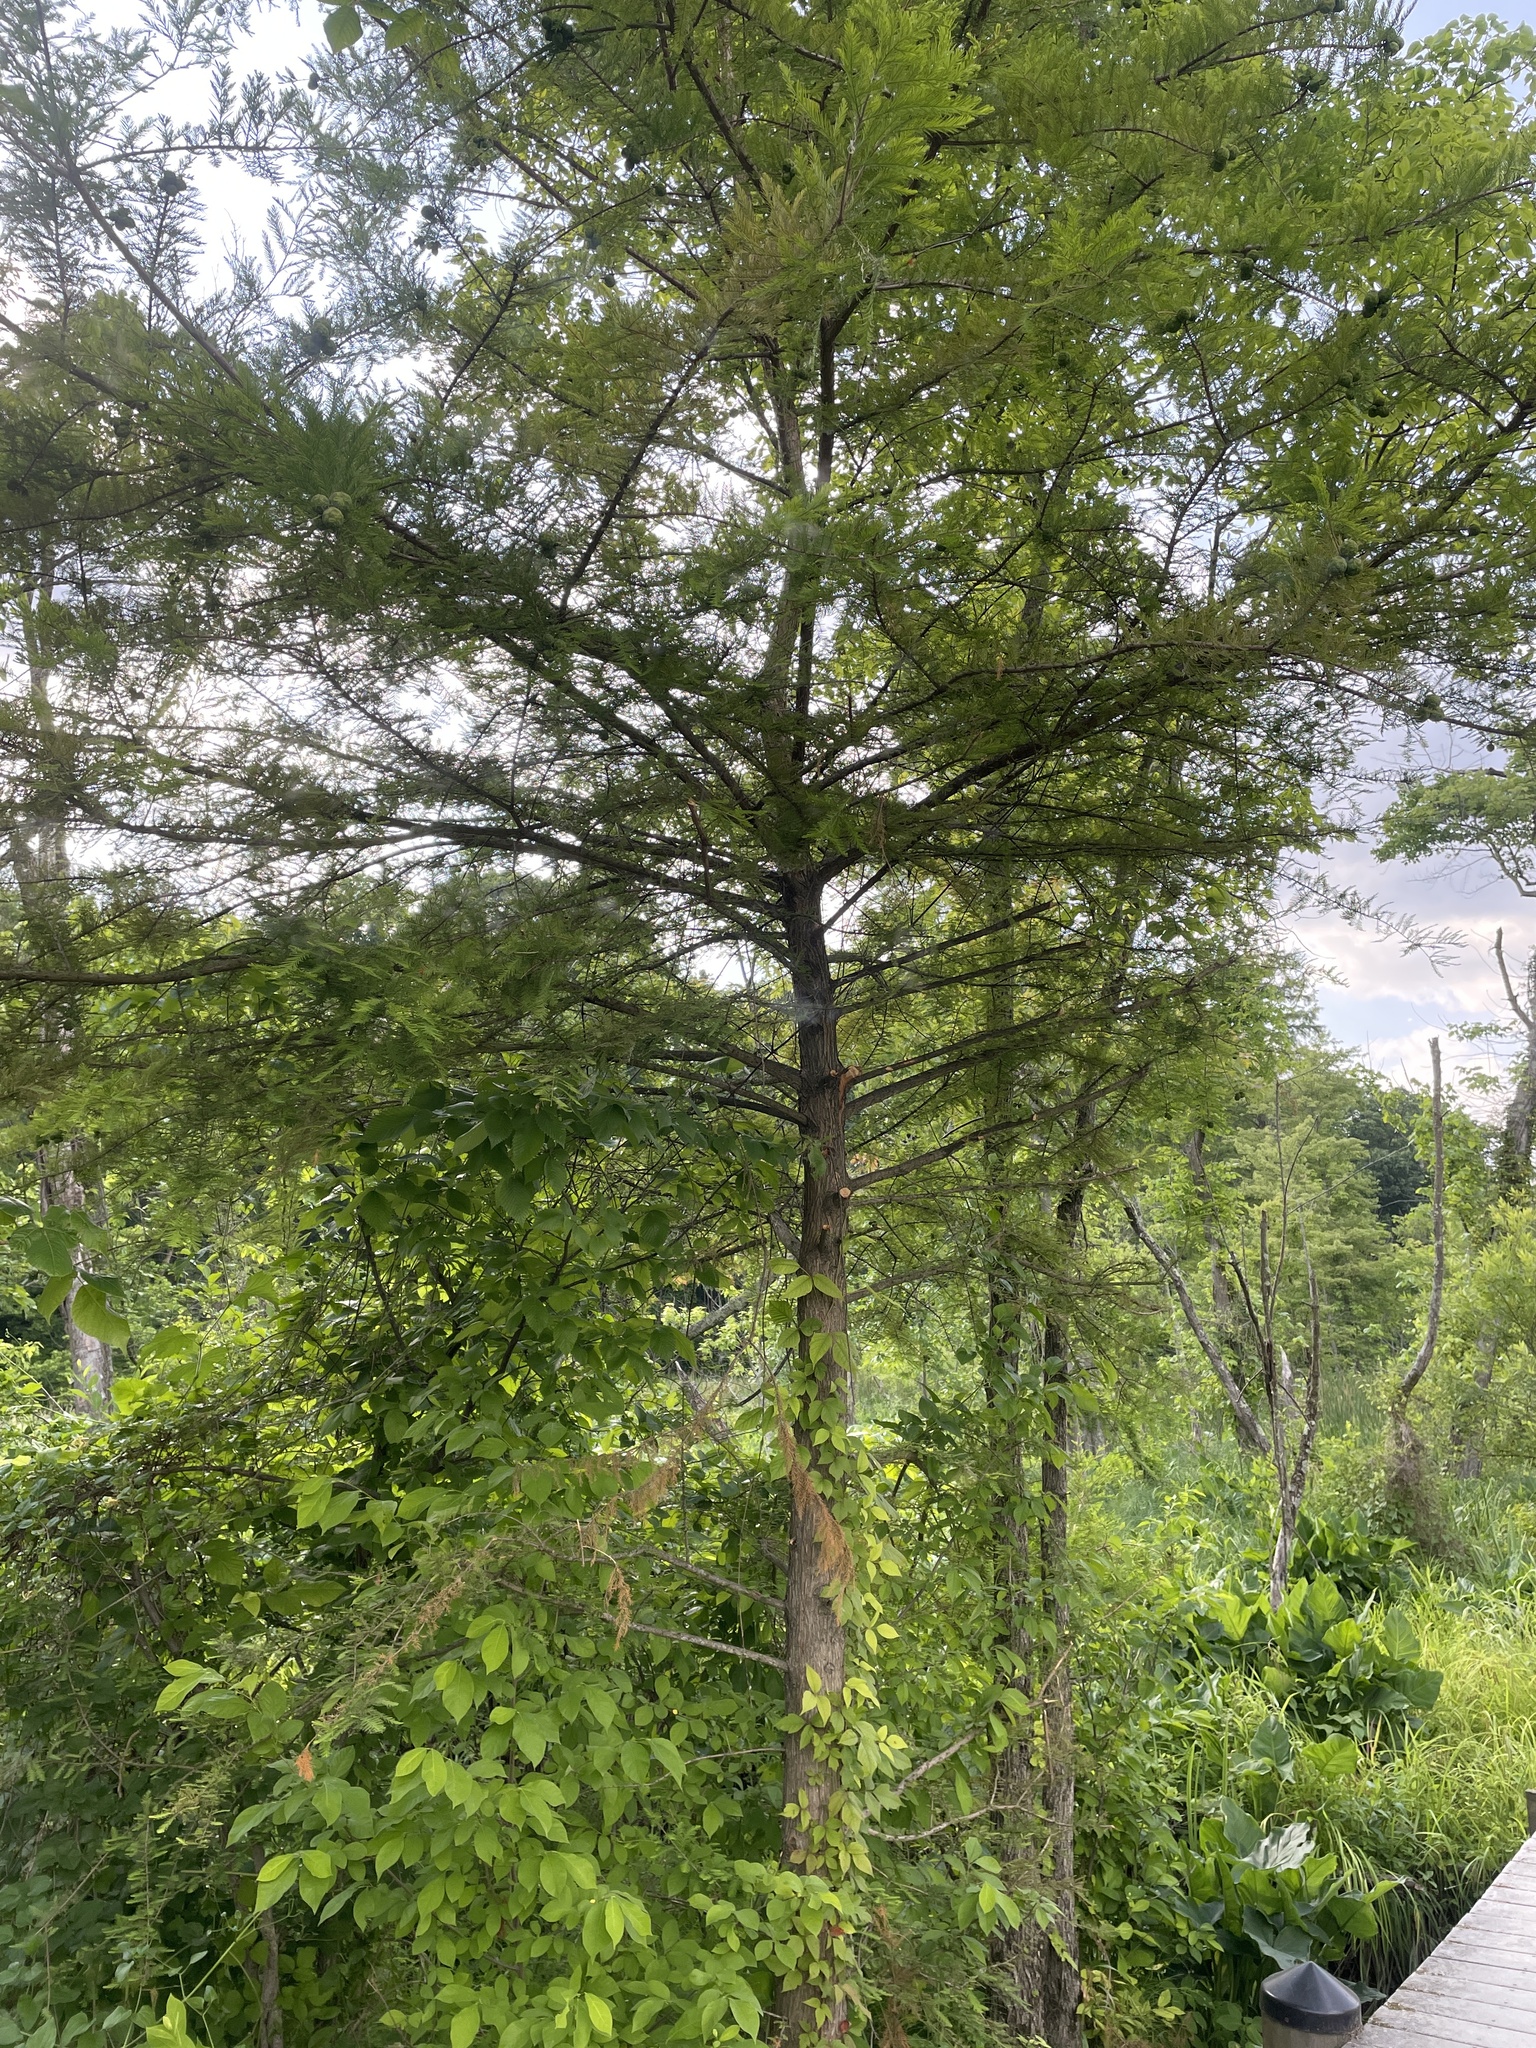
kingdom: Plantae
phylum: Tracheophyta
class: Pinopsida
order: Pinales
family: Cupressaceae
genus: Taxodium
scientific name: Taxodium distichum
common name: Bald cypress
